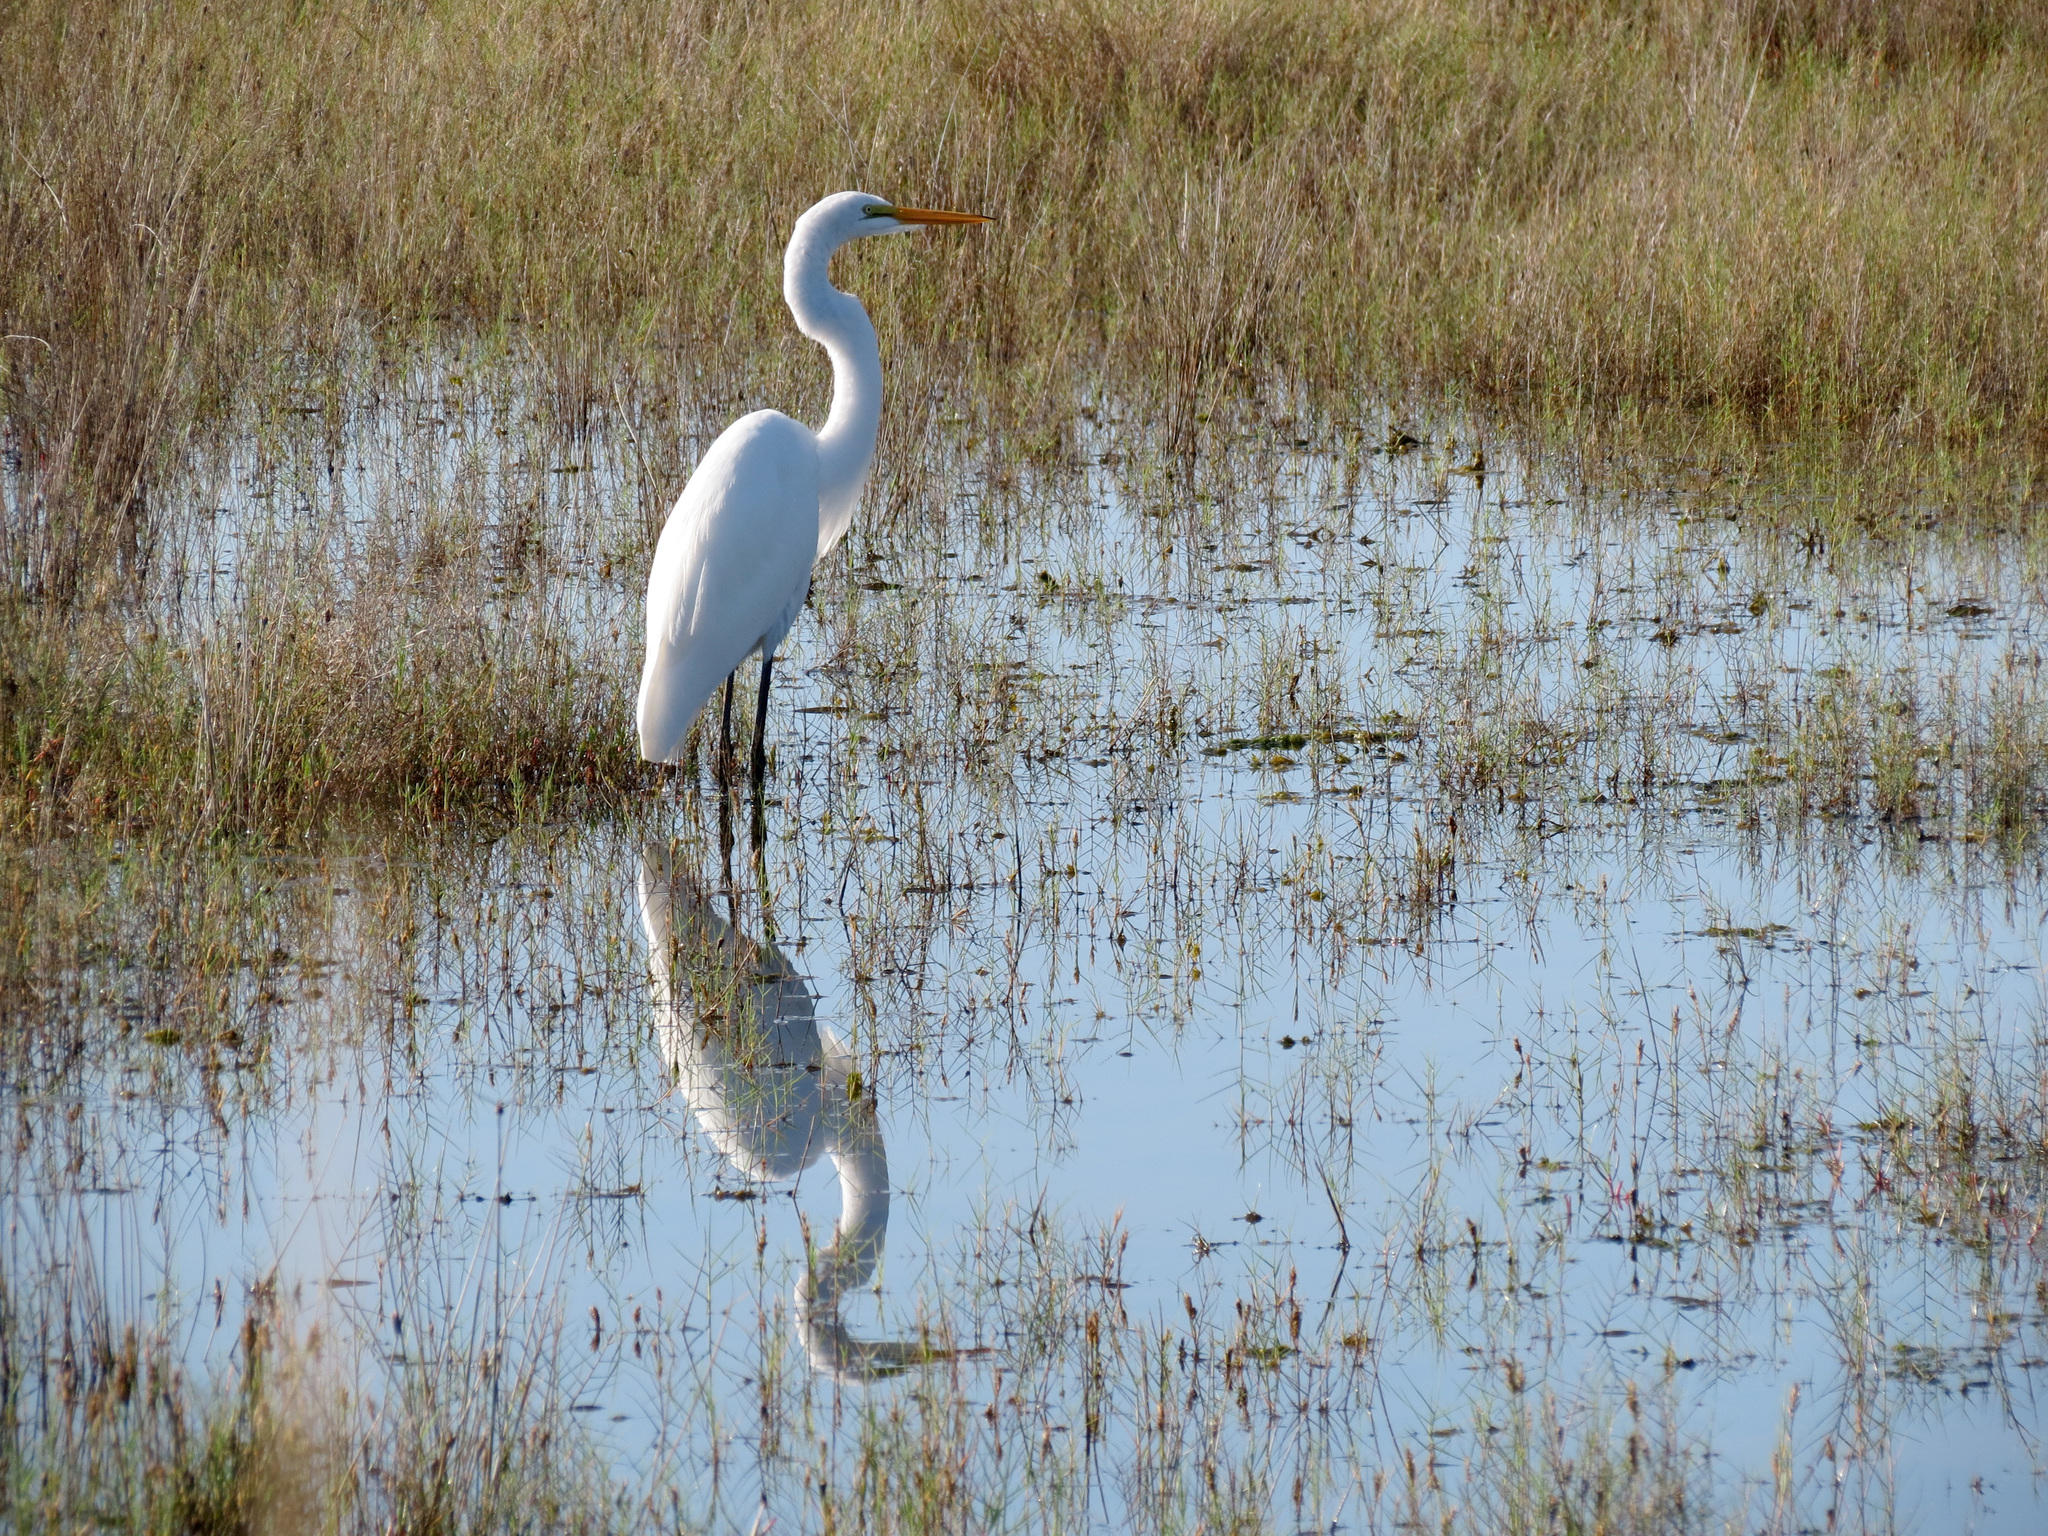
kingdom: Animalia
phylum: Chordata
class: Aves
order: Pelecaniformes
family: Ardeidae
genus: Ardea
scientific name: Ardea alba
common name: Great egret
